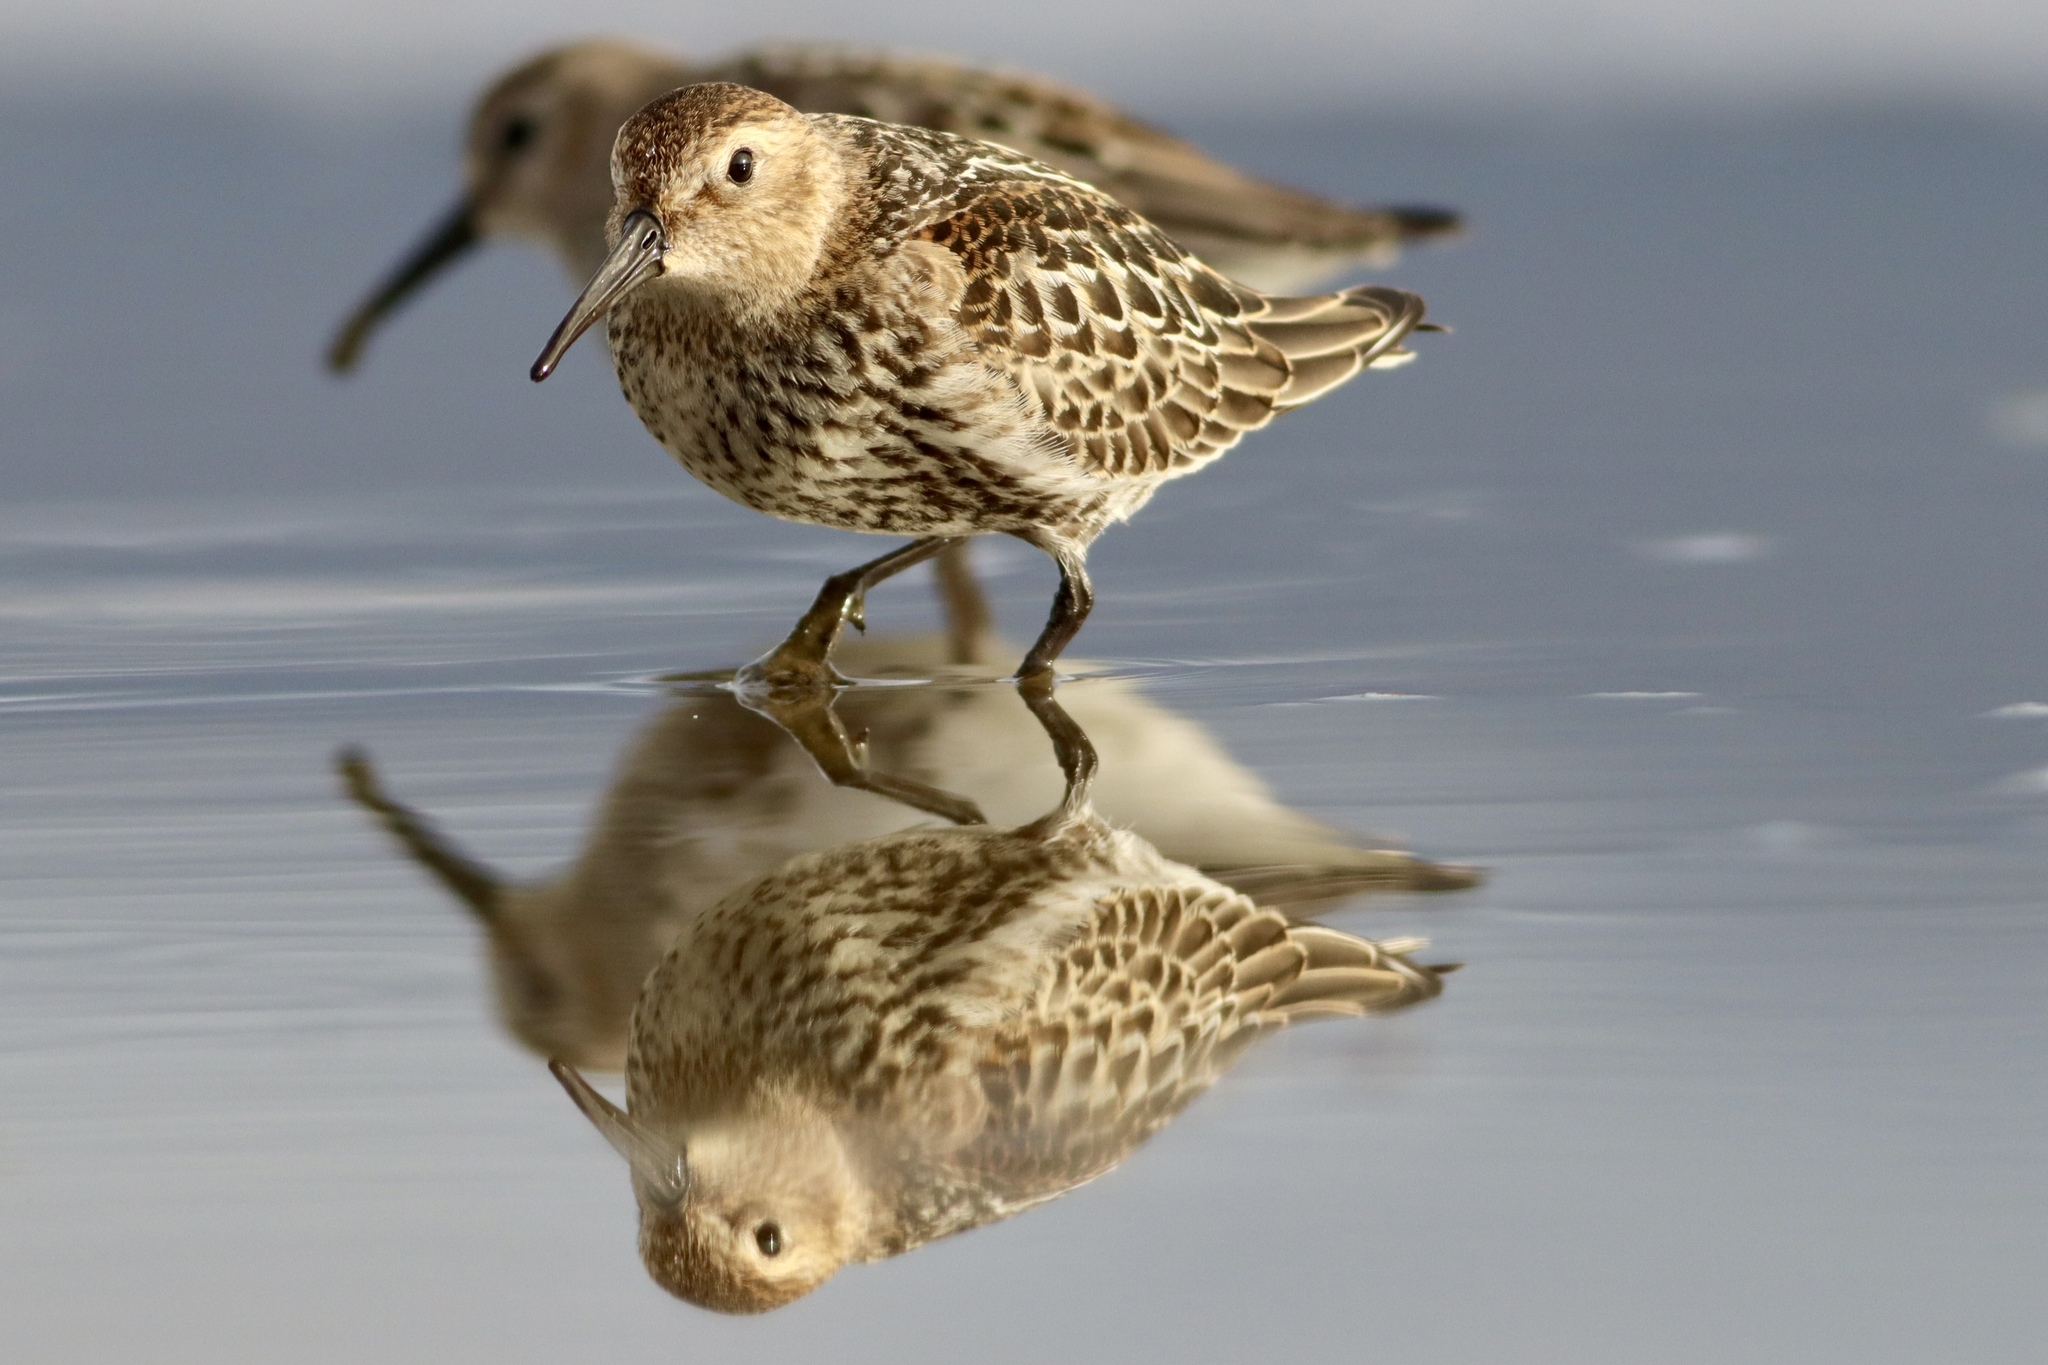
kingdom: Animalia
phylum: Chordata
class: Aves
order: Charadriiformes
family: Scolopacidae
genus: Calidris
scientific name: Calidris alpina
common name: Dunlin
